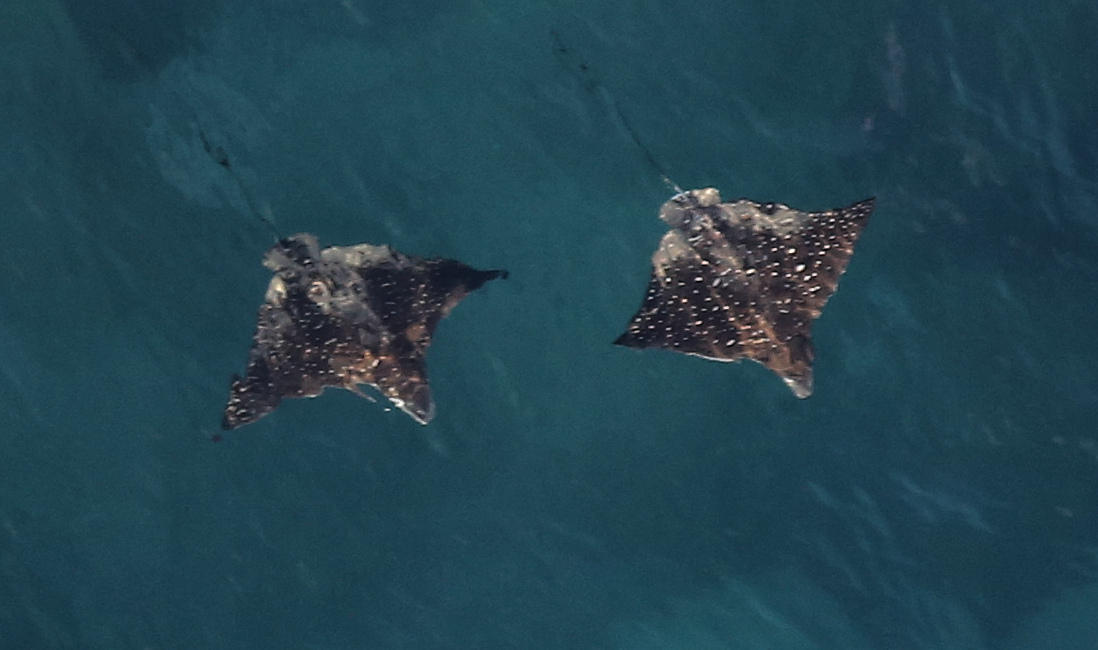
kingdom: Animalia
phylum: Chordata
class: Elasmobranchii
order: Myliobatiformes
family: Myliobatidae
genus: Aetobatus
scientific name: Aetobatus ocellatus
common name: Ocellated eagle ray
